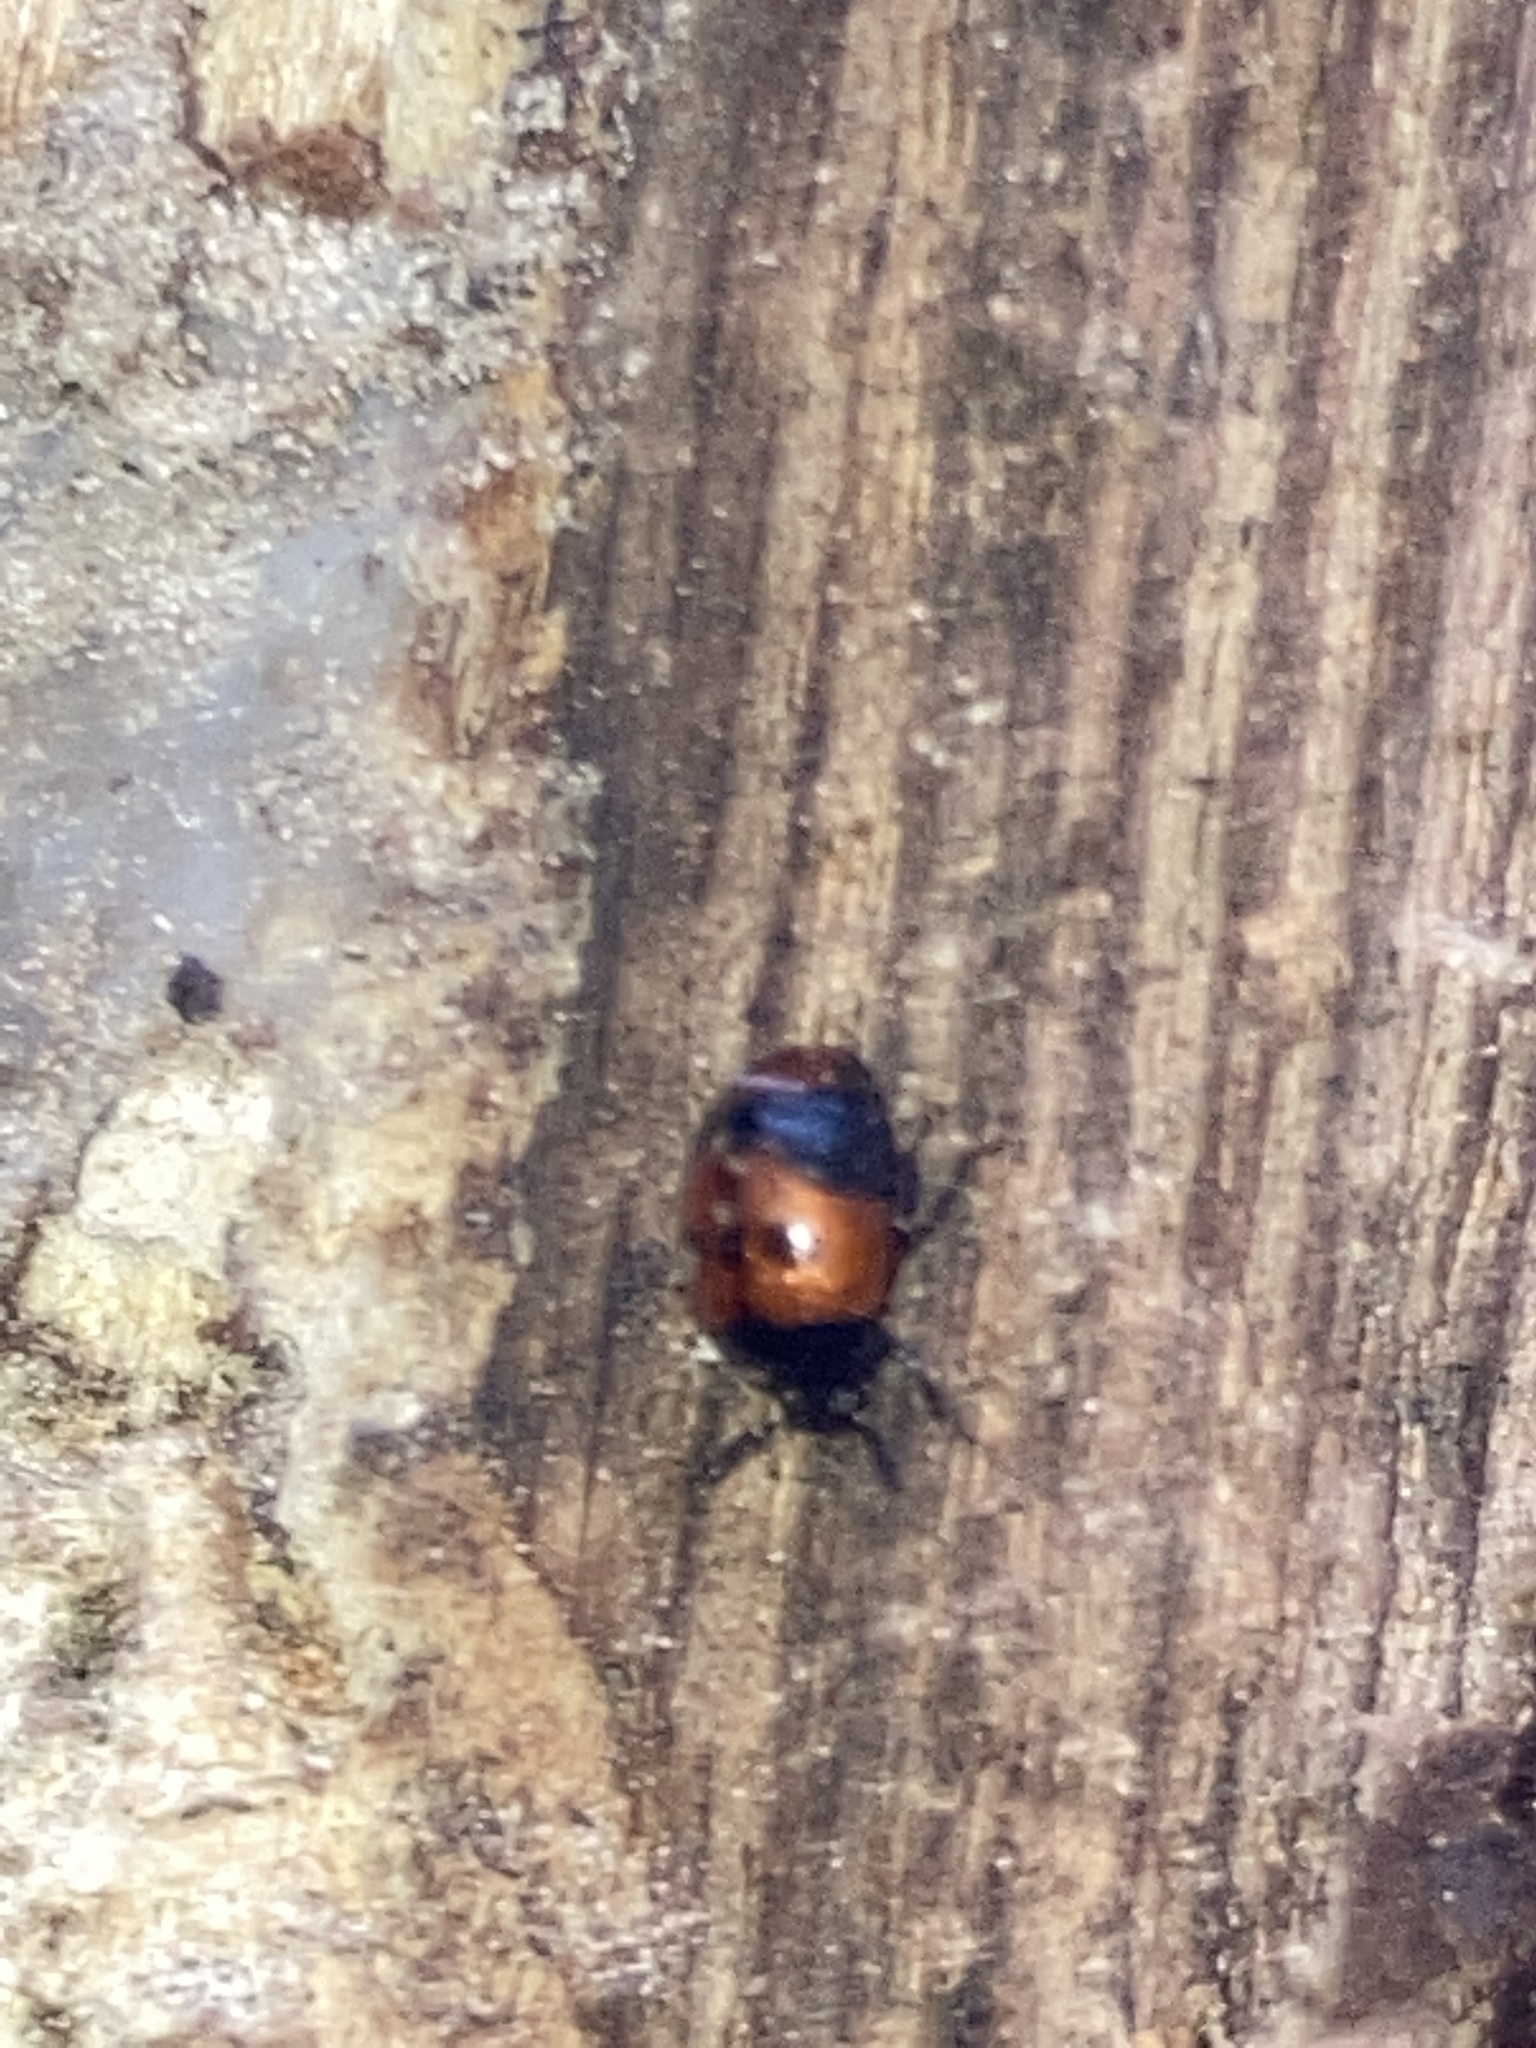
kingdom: Animalia
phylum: Arthropoda
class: Insecta
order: Coleoptera
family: Tenebrionidae
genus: Diaperis
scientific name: Diaperis maculata
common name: Darkling beetle
